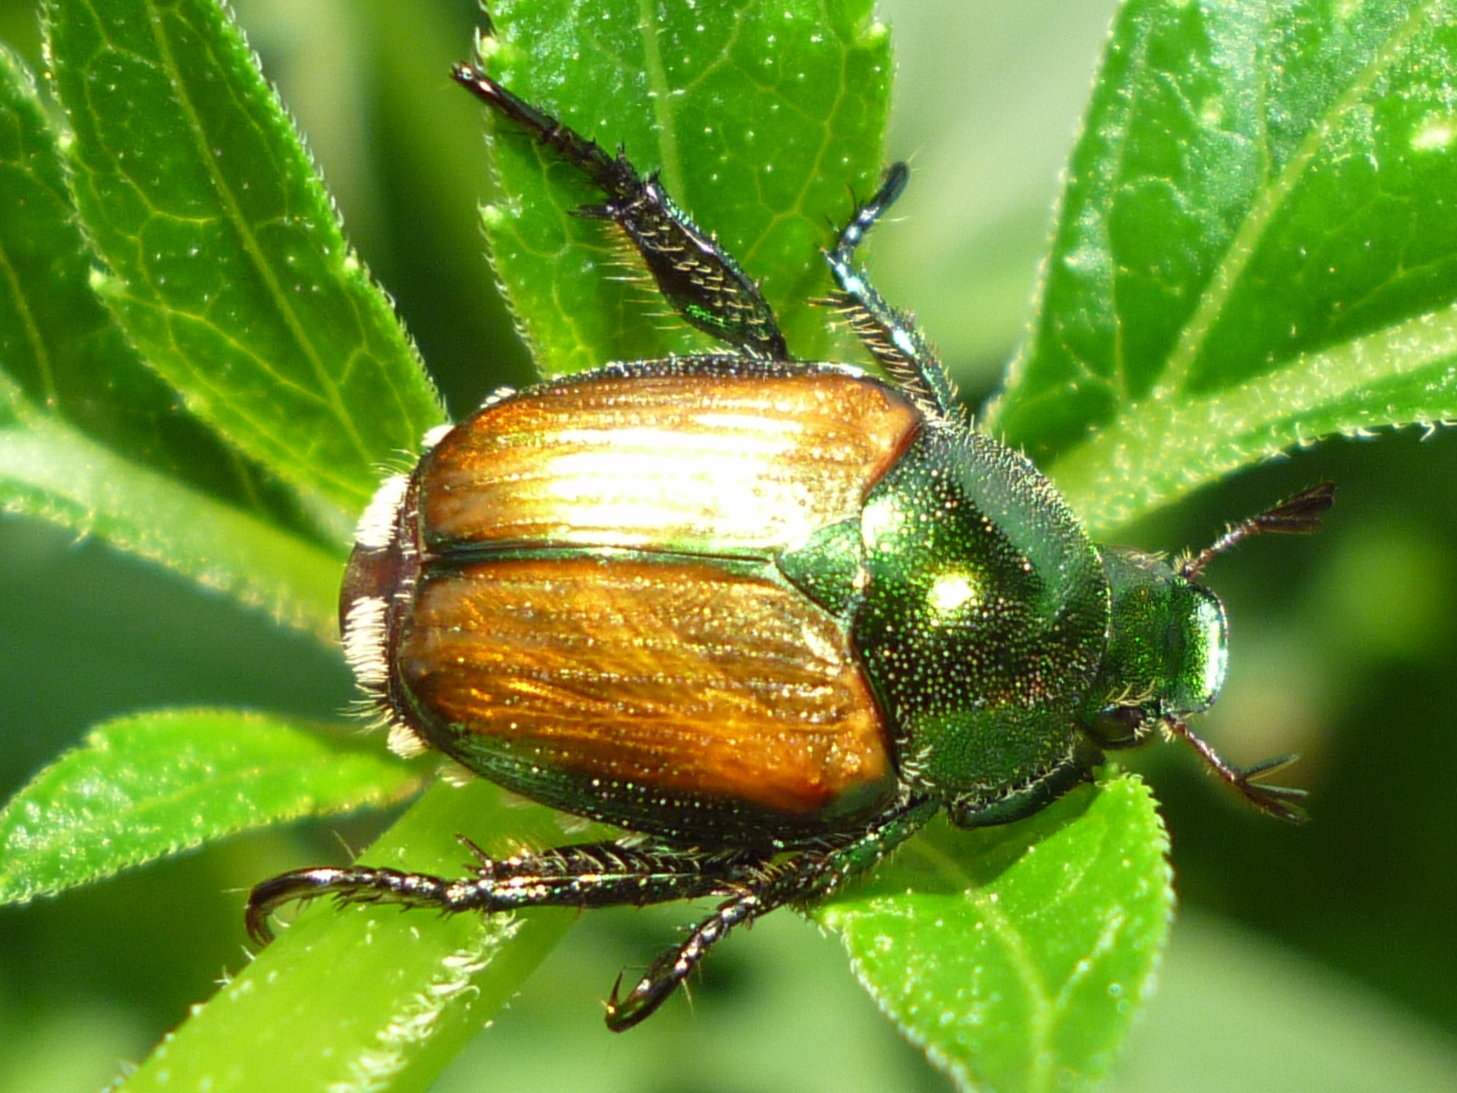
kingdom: Animalia
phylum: Arthropoda
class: Insecta
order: Coleoptera
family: Scarabaeidae
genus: Popillia
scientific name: Popillia japonica
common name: Japanese beetle
